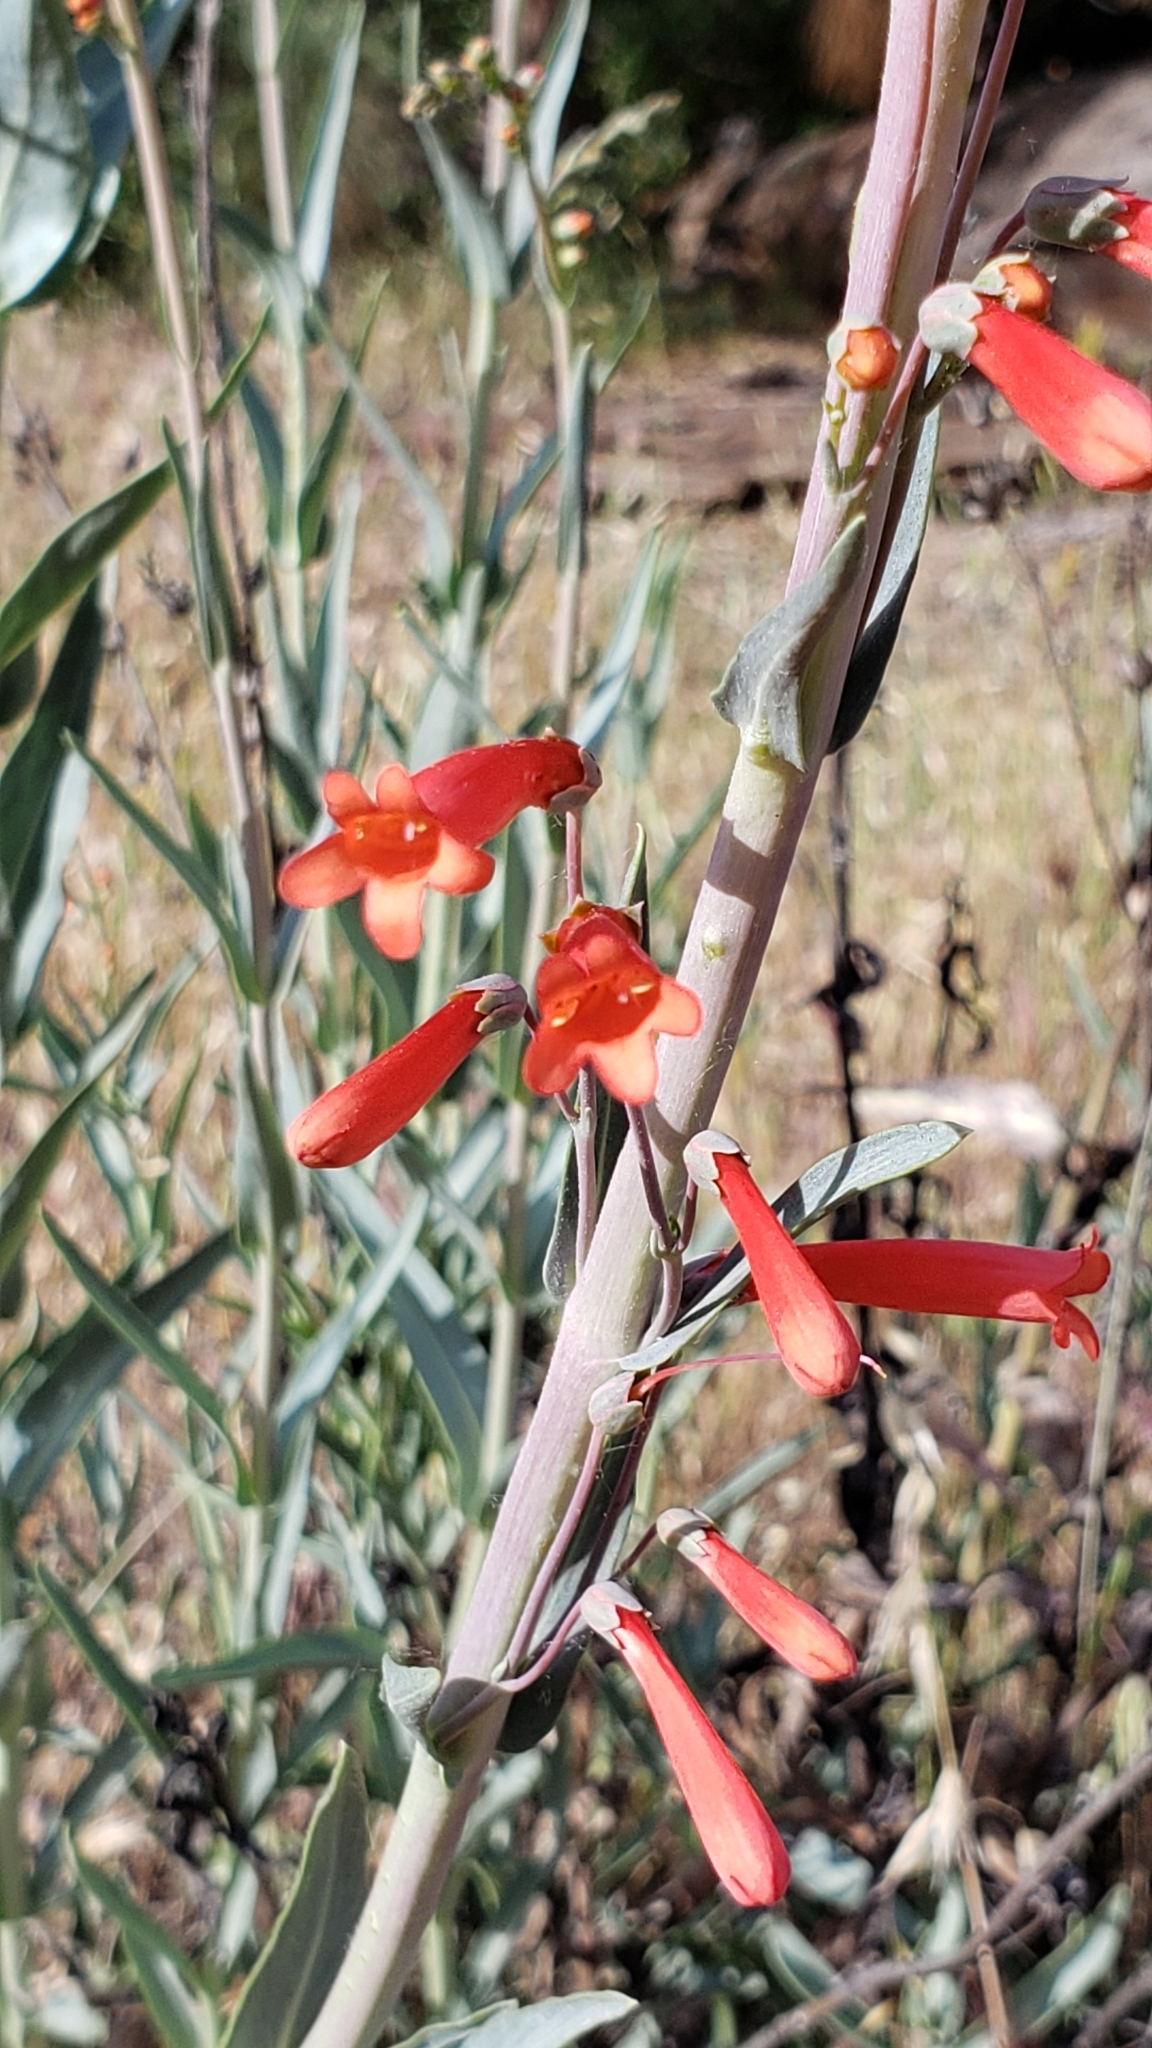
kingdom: Plantae
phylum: Tracheophyta
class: Magnoliopsida
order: Lamiales
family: Plantaginaceae
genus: Penstemon
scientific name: Penstemon centranthifolius
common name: Scarlet bugler
